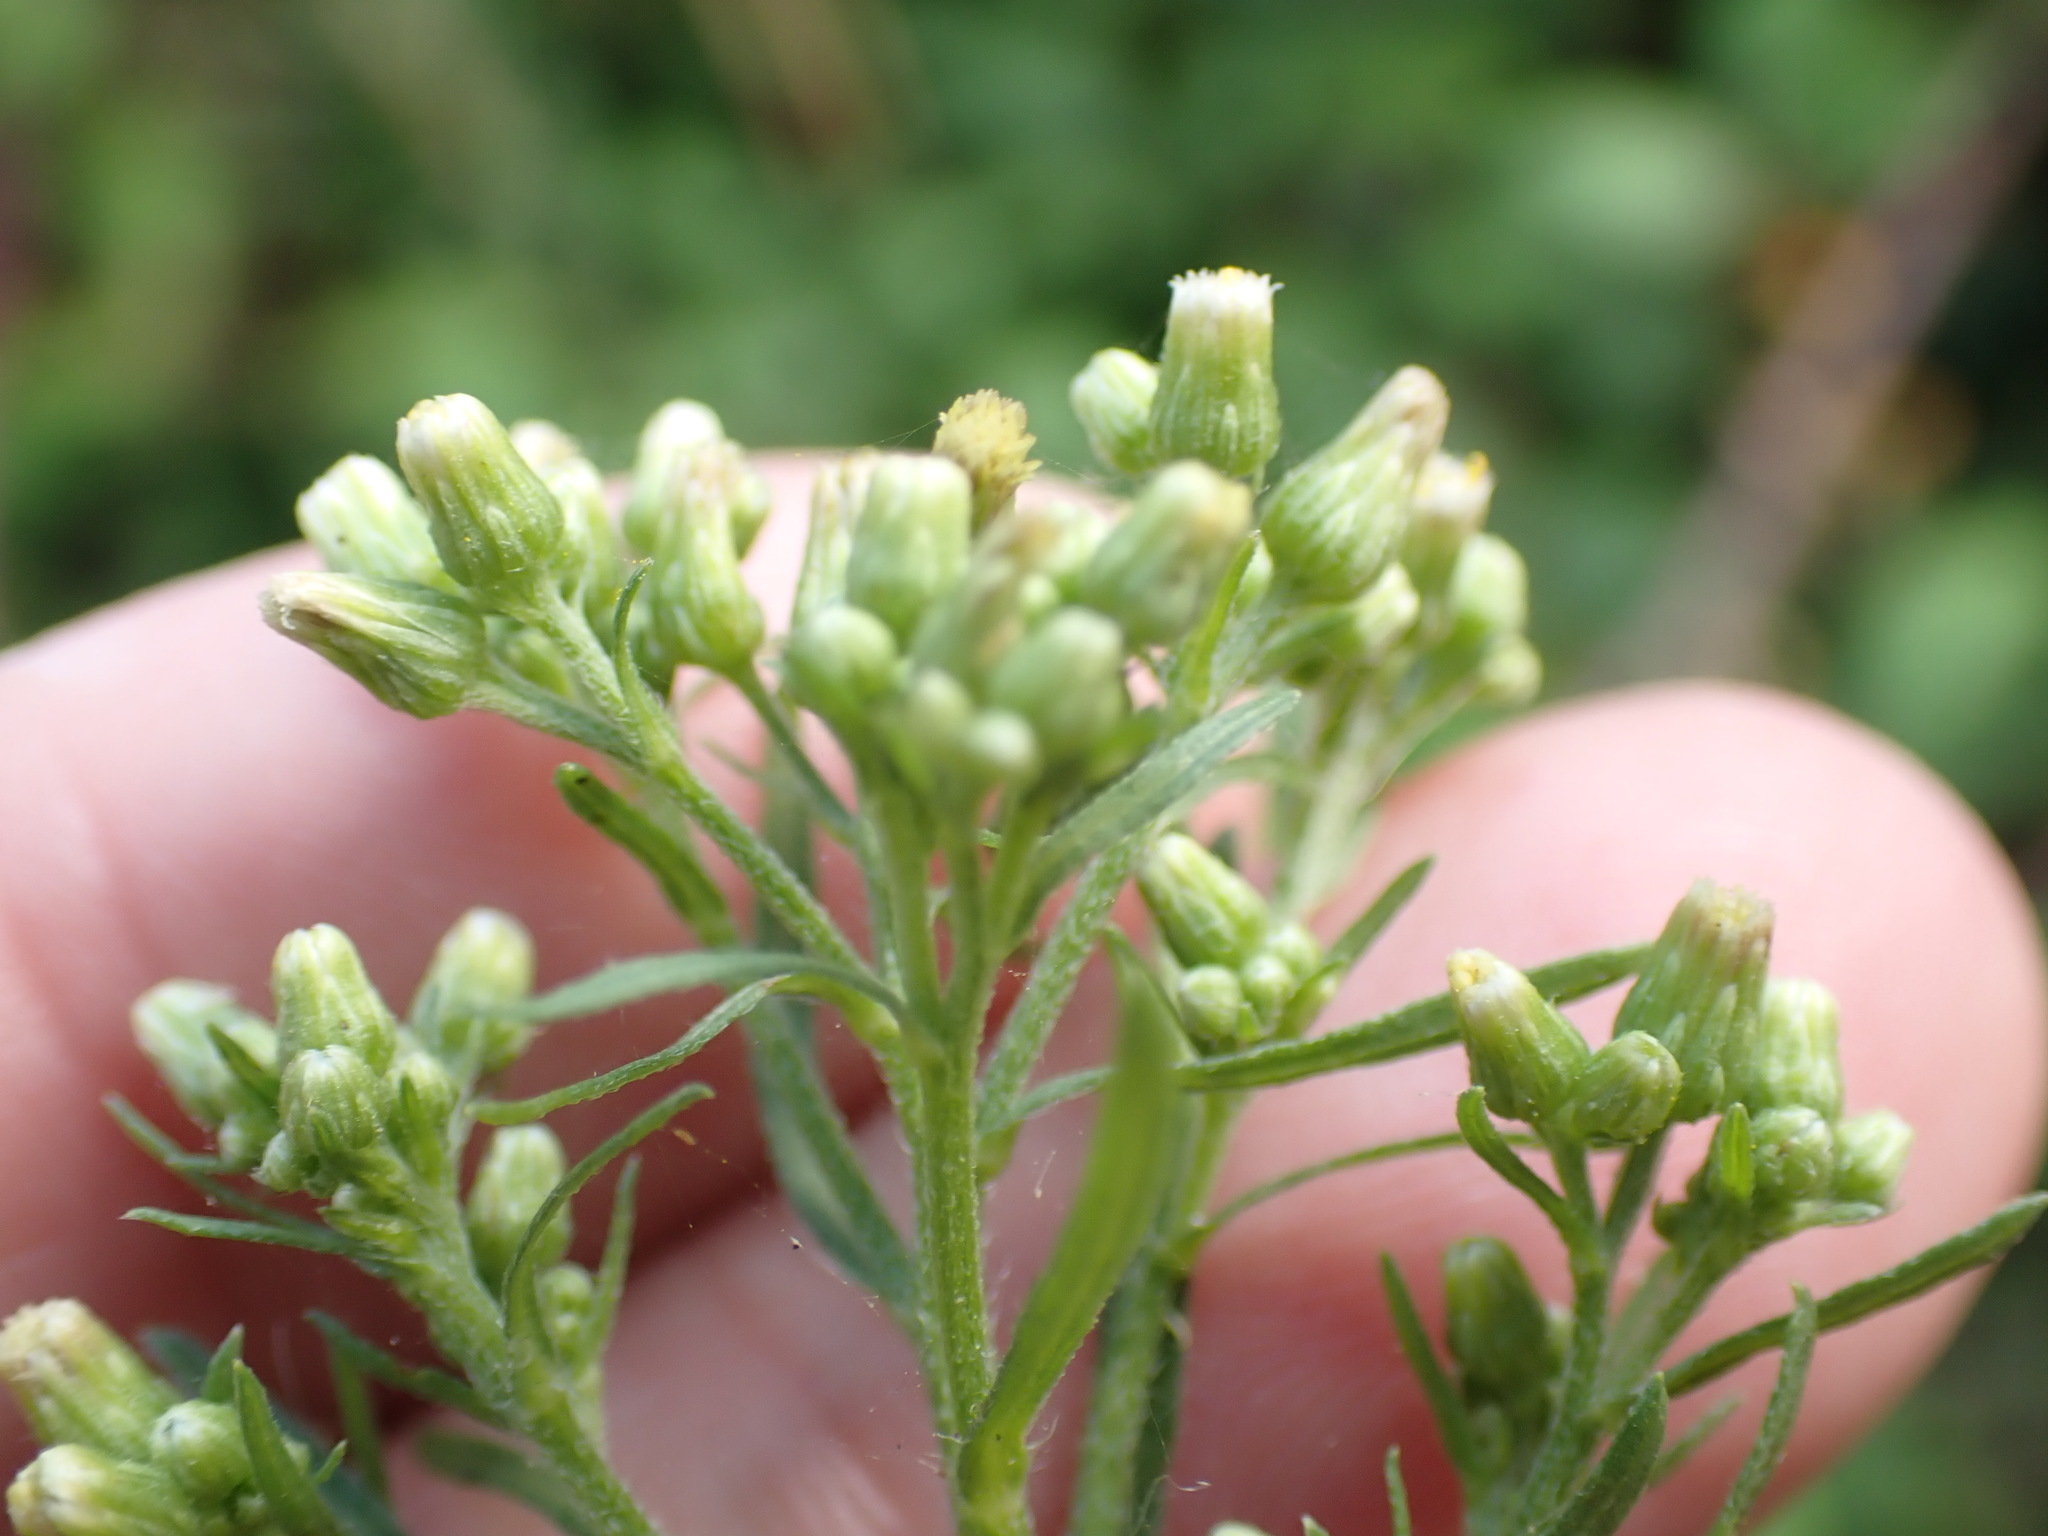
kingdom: Plantae
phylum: Tracheophyta
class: Magnoliopsida
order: Asterales
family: Asteraceae
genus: Erigeron
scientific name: Erigeron floribundus
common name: Bilbao fleabane
